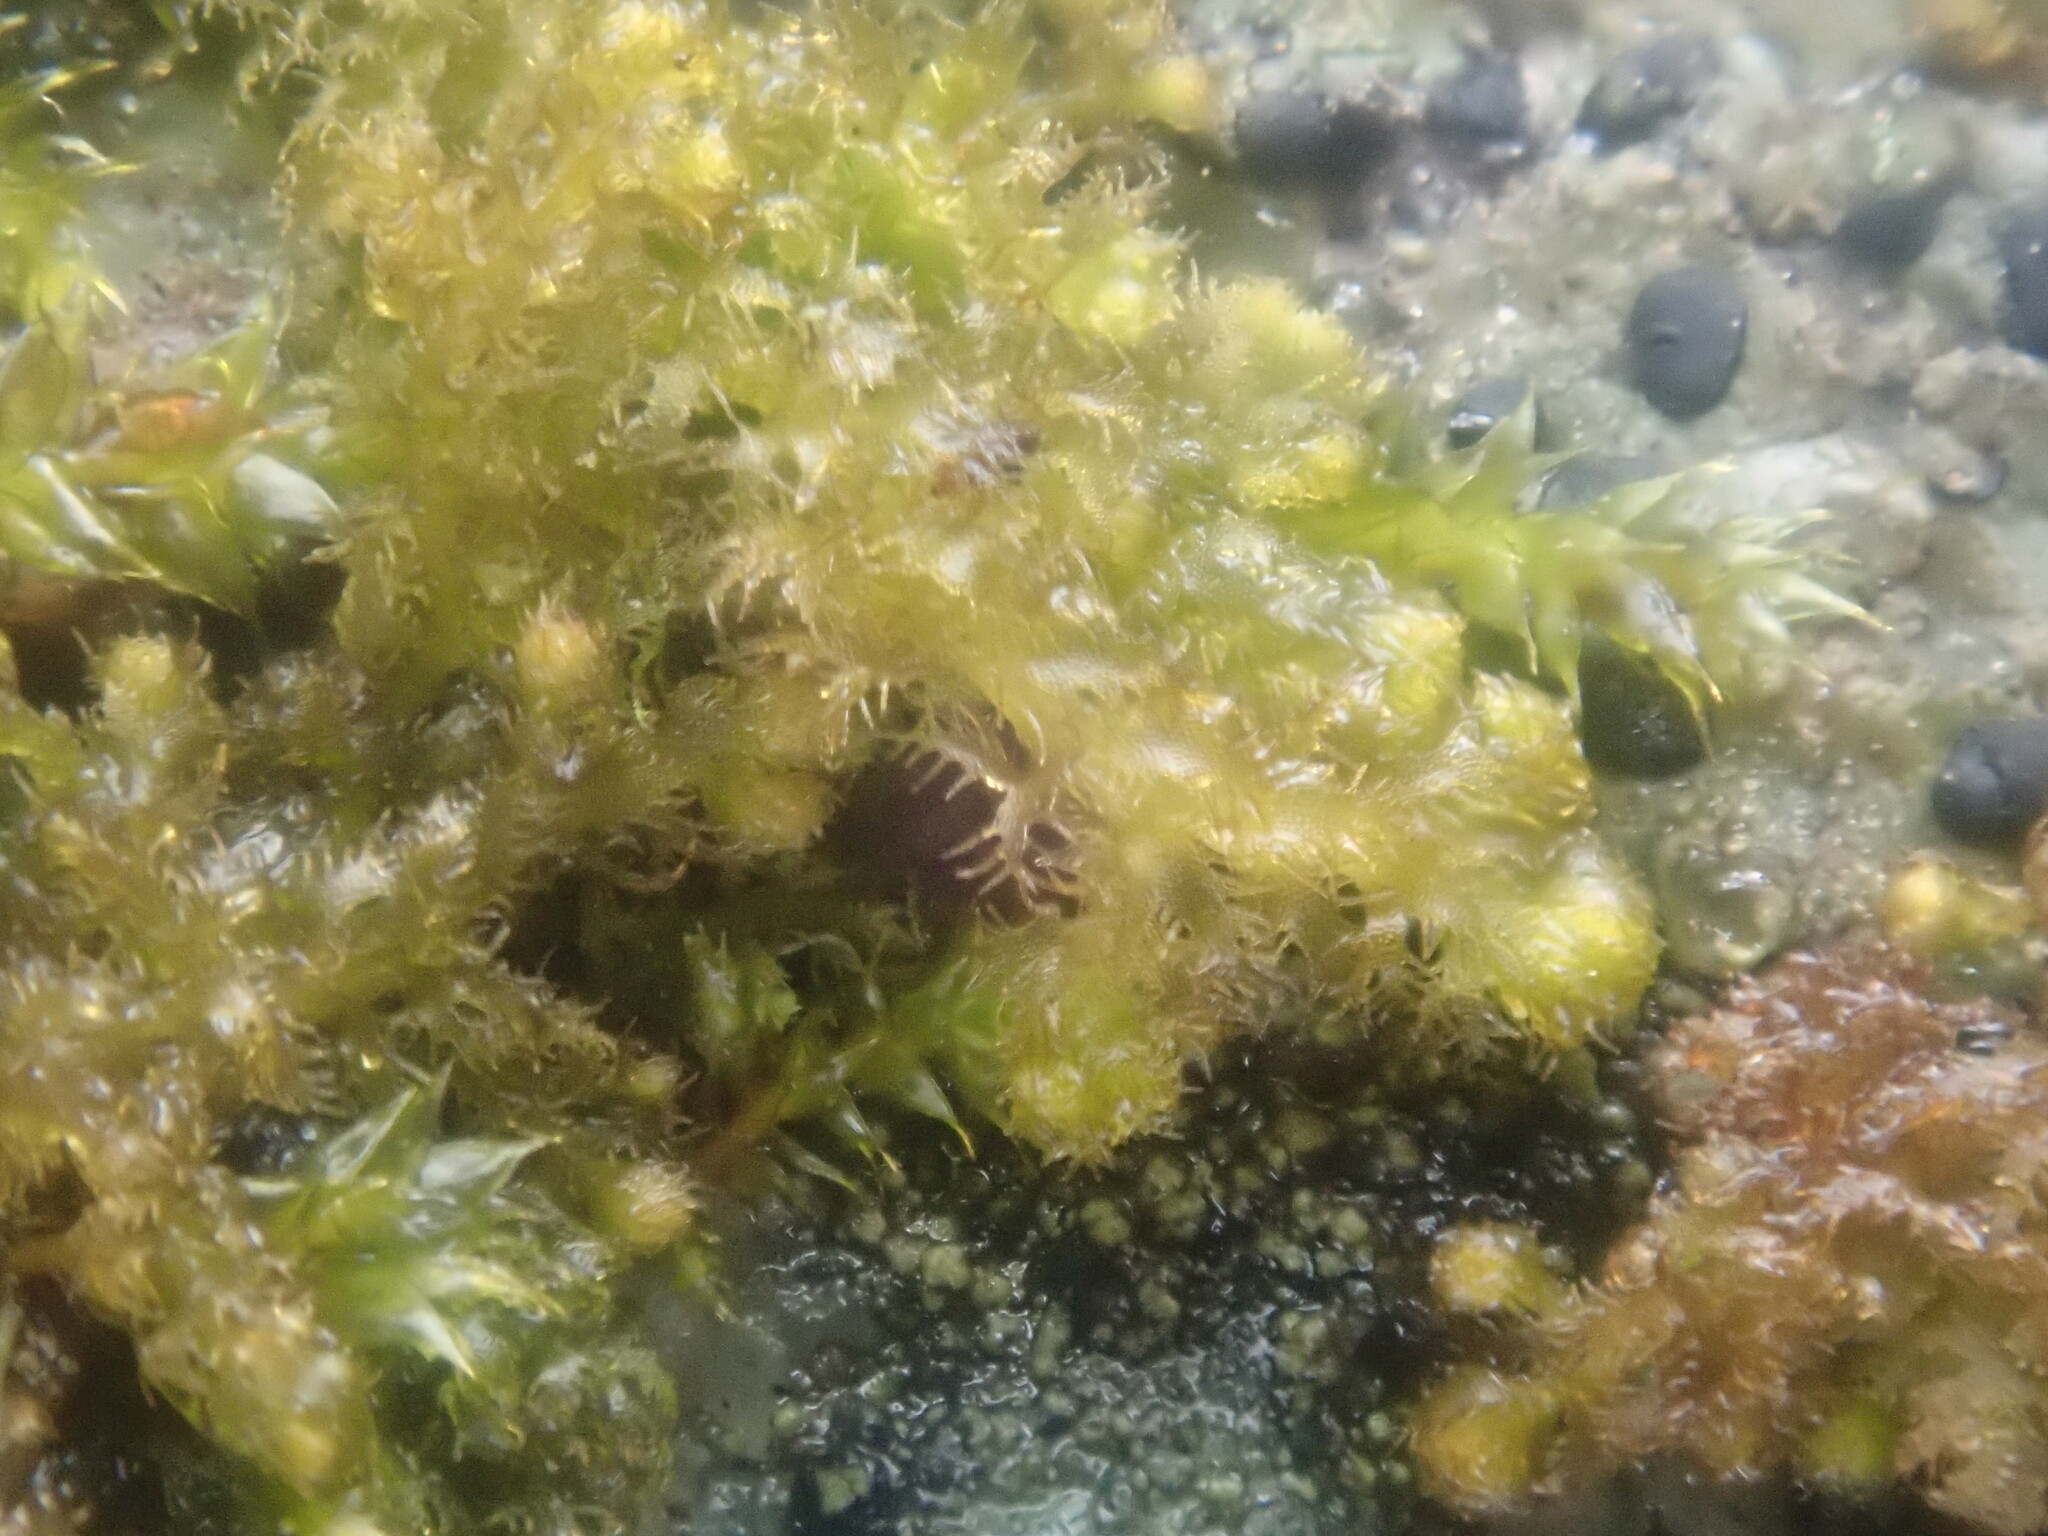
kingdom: Plantae
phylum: Marchantiophyta
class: Jungermanniopsida
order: Ptilidiales
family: Ptilidiaceae
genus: Ptilidium
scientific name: Ptilidium pulcherrimum
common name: Tree fringewort
